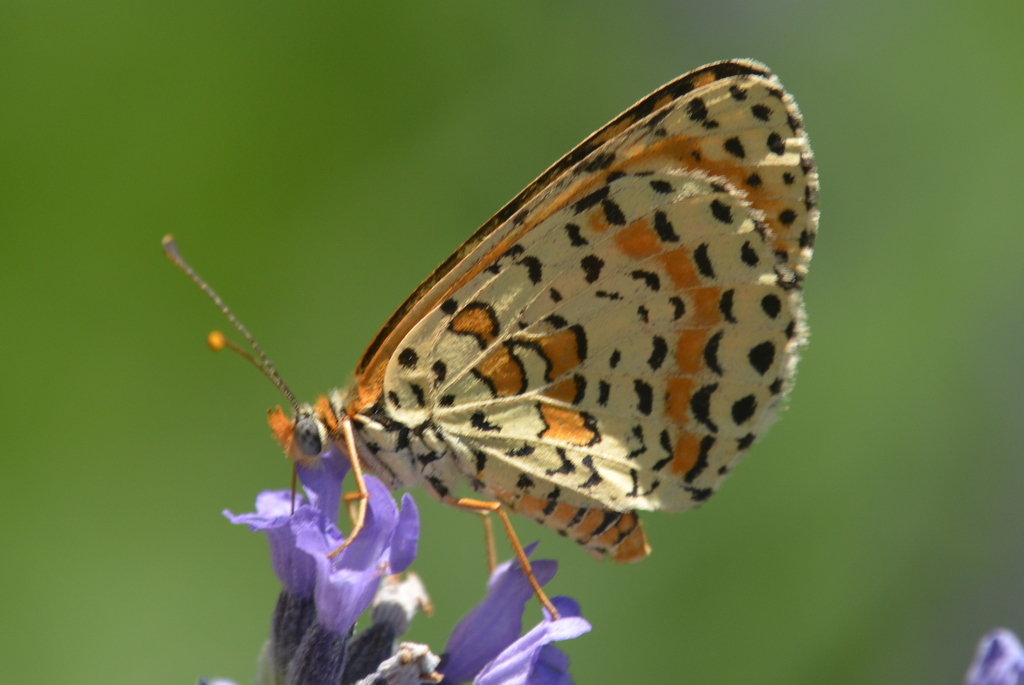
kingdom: Animalia
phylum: Arthropoda
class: Insecta
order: Lepidoptera
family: Nymphalidae
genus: Melitaea
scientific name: Melitaea didyma
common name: Spotted fritillary
